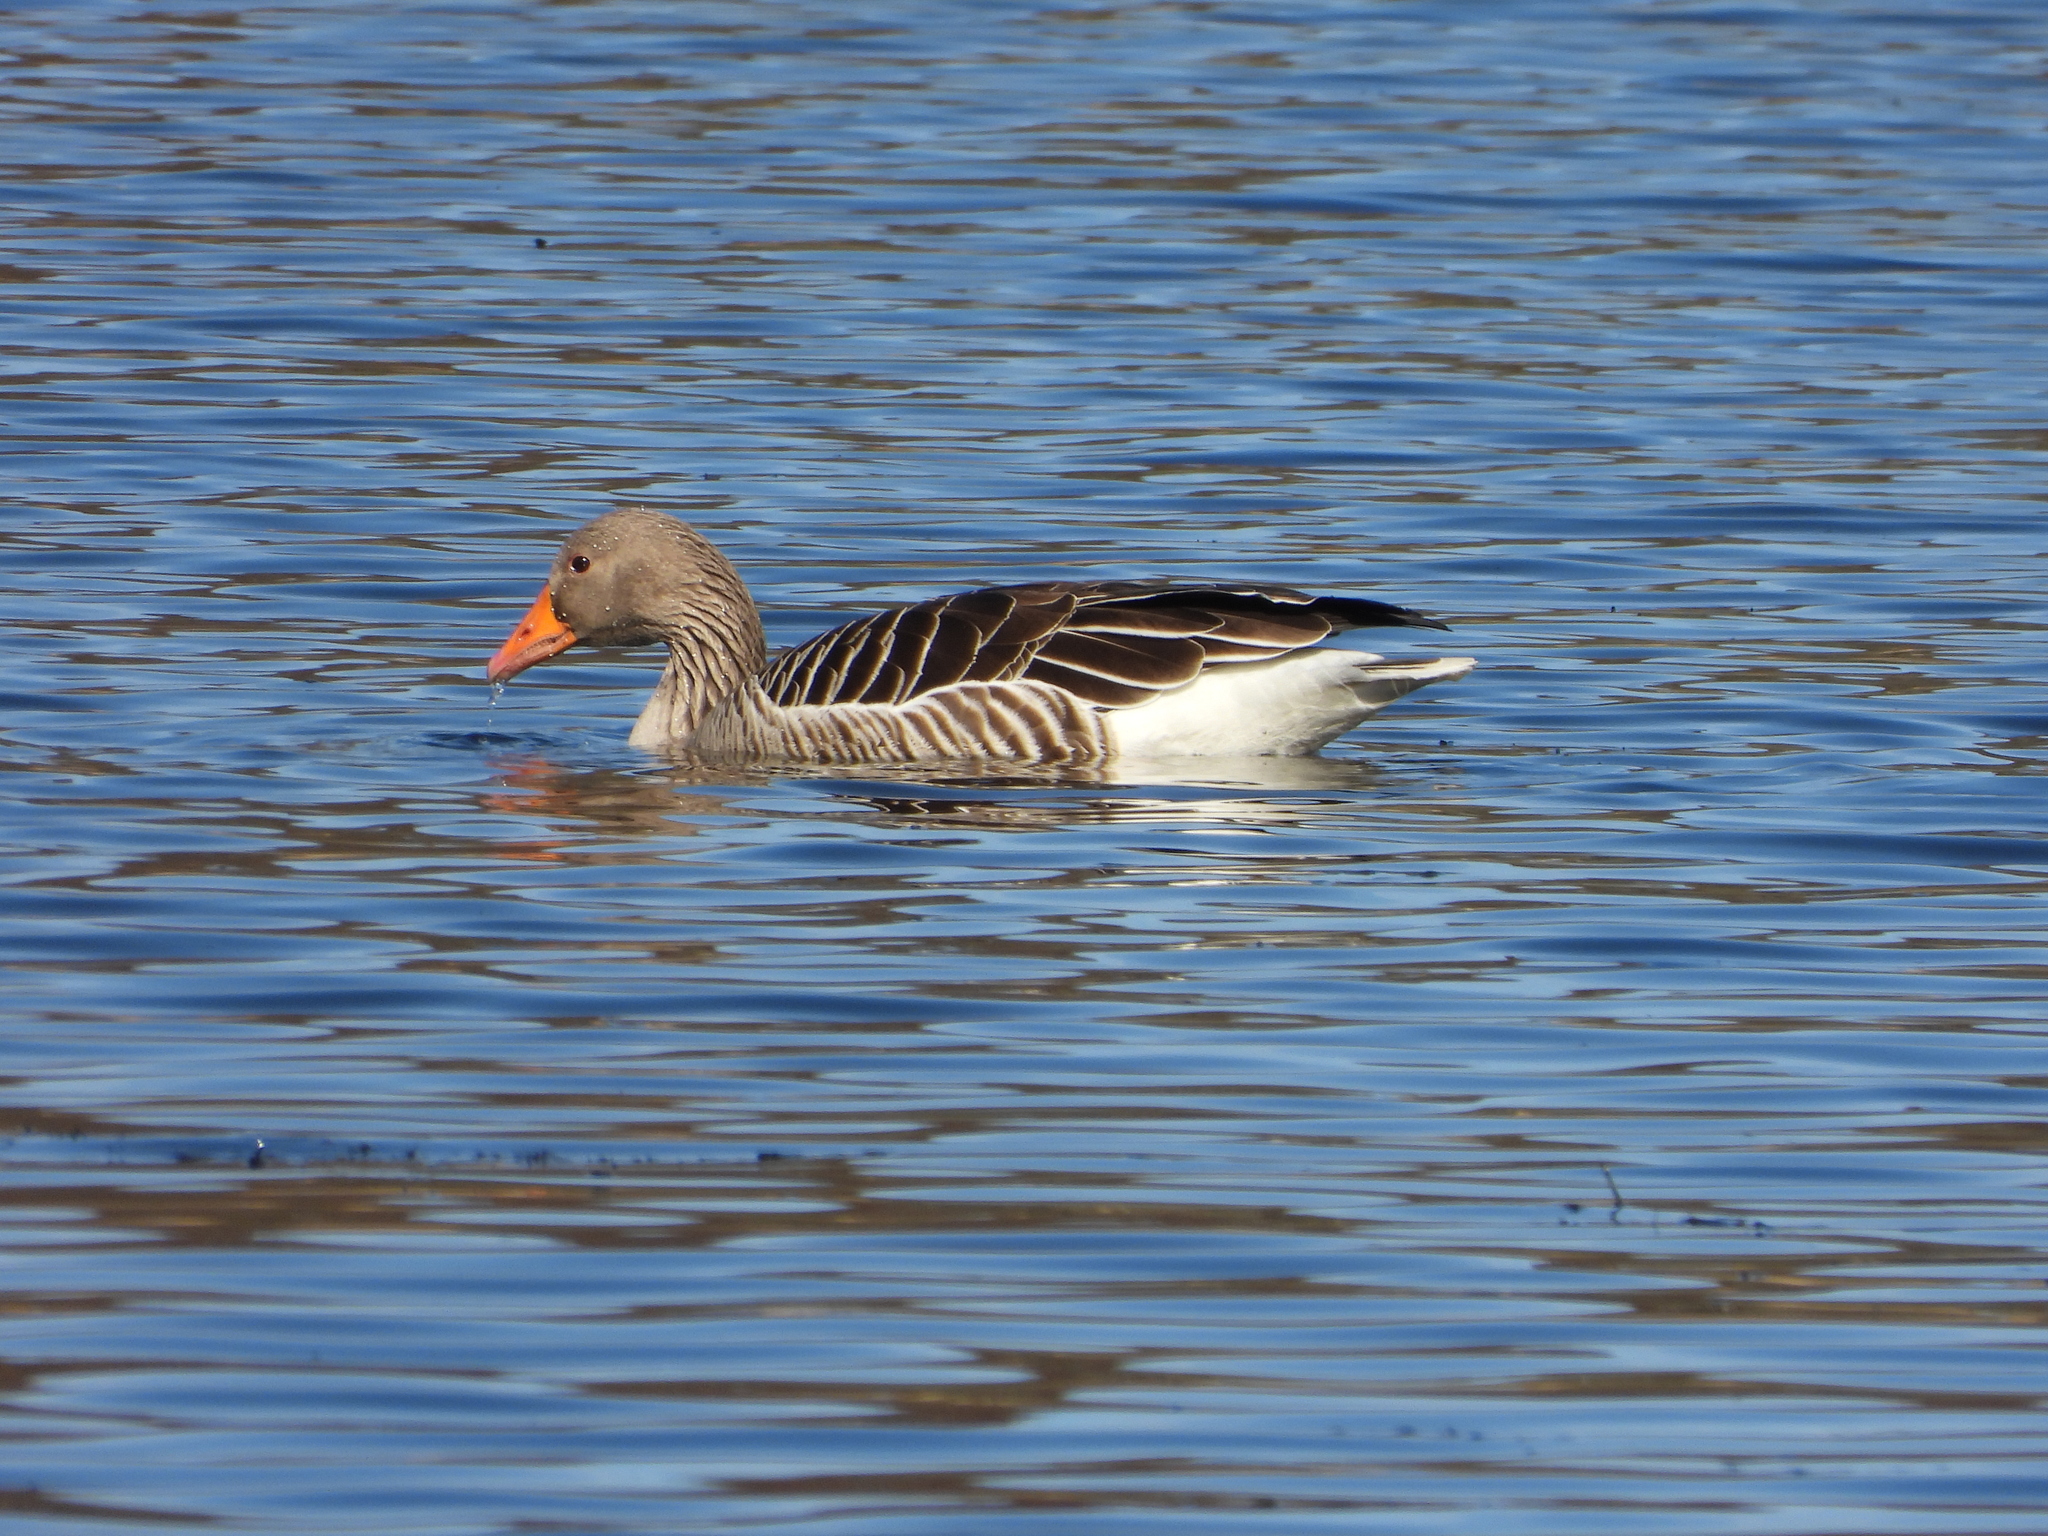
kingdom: Animalia
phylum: Chordata
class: Aves
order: Anseriformes
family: Anatidae
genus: Anser
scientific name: Anser anser
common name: Greylag goose
